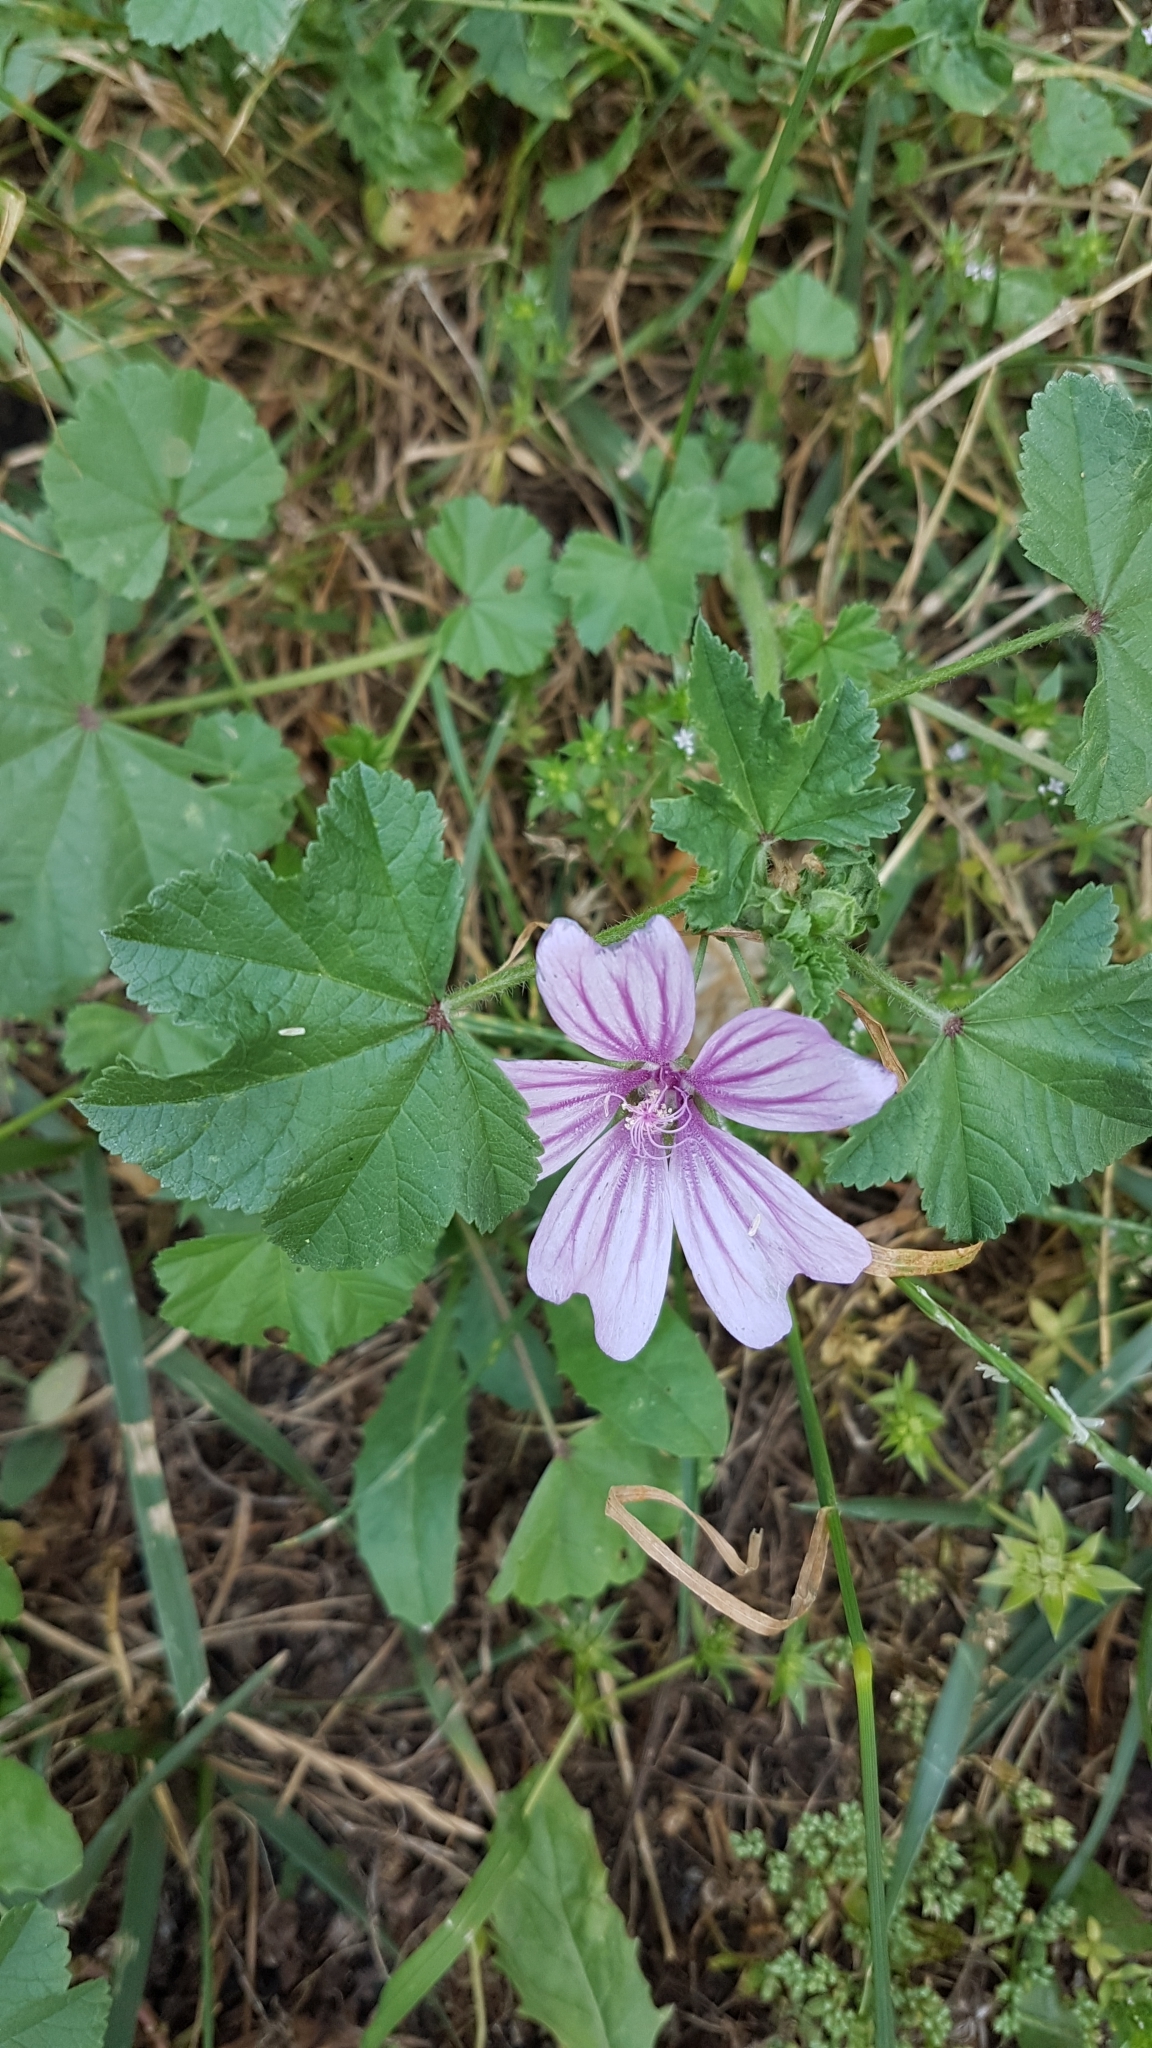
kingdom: Plantae
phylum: Tracheophyta
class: Magnoliopsida
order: Malvales
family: Malvaceae
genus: Malva
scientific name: Malva sylvestris
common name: Common mallow
